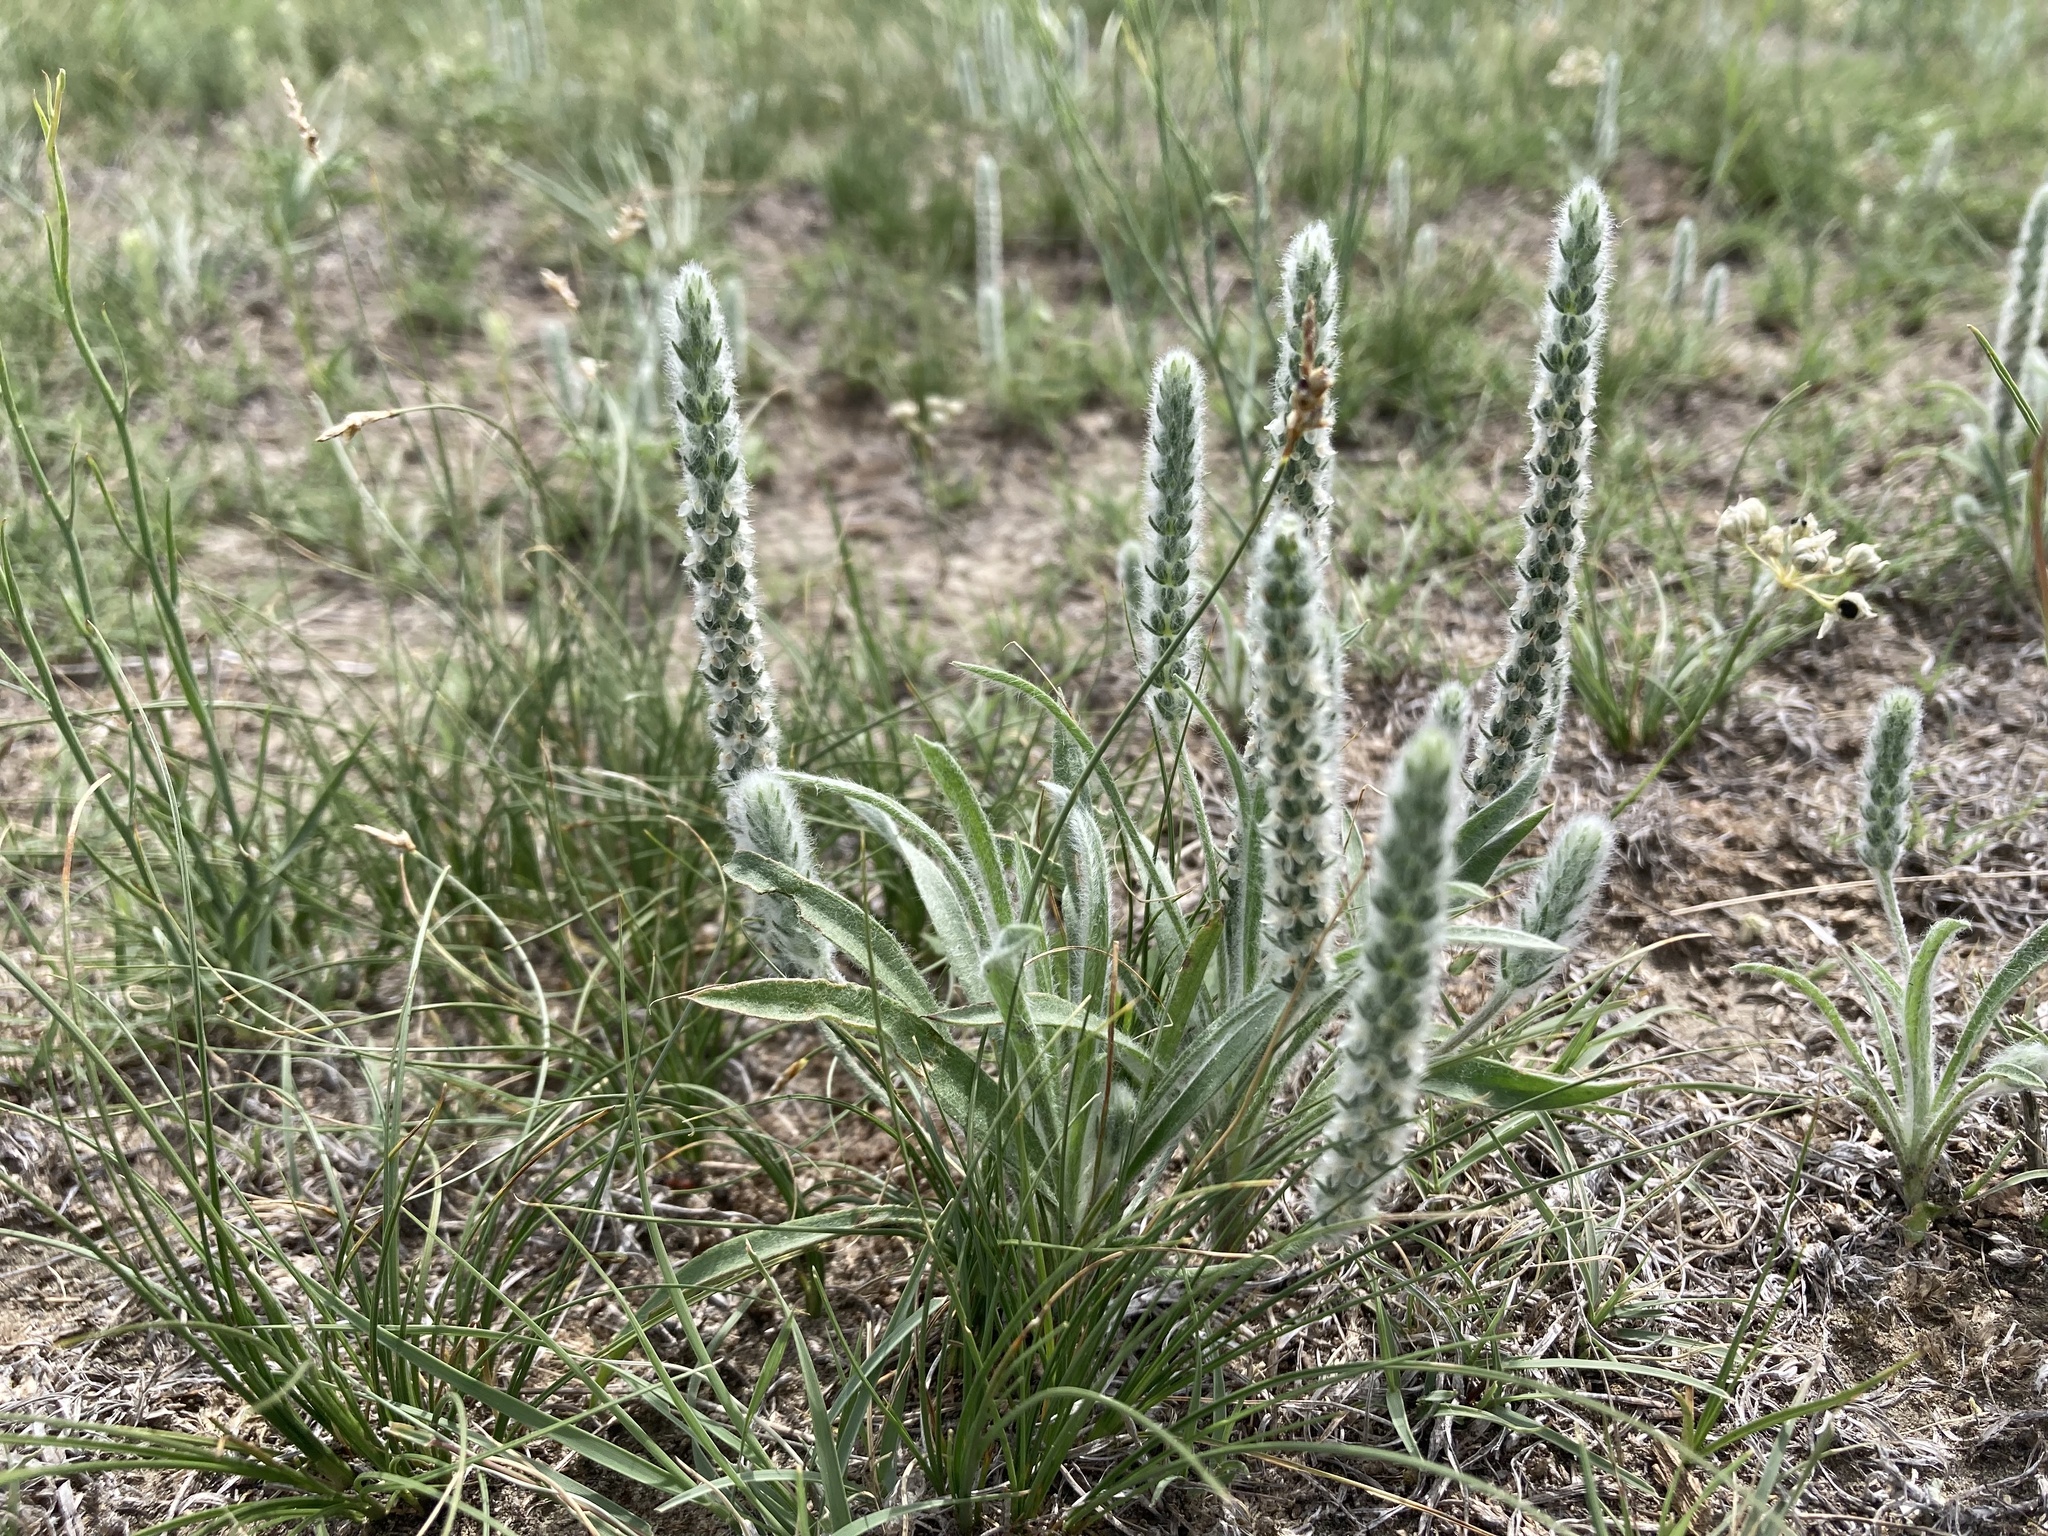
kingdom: Plantae
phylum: Tracheophyta
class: Magnoliopsida
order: Lamiales
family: Plantaginaceae
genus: Plantago
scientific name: Plantago patagonica
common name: Patagonia indian-wheat
